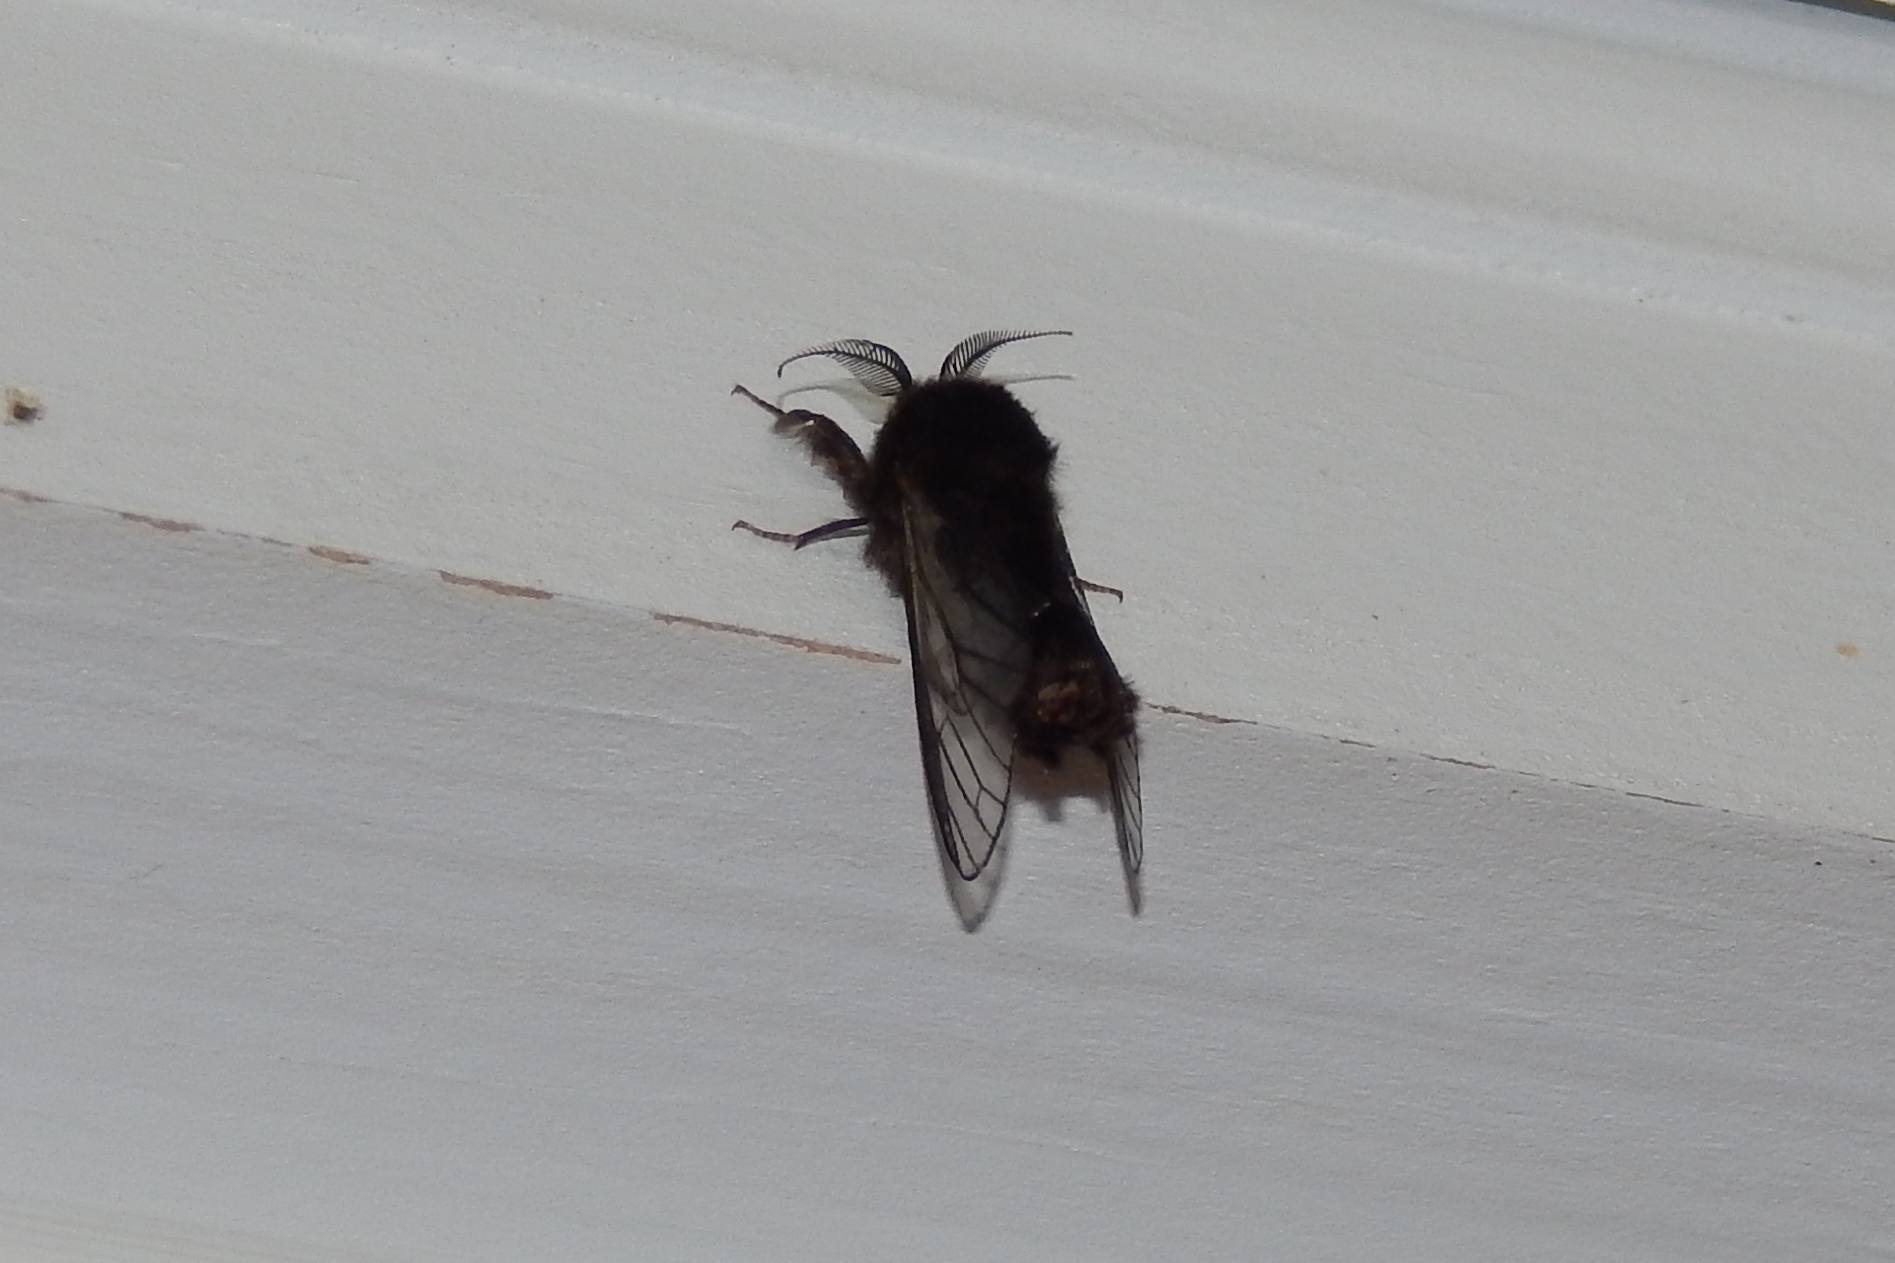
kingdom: Animalia
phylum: Arthropoda
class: Insecta
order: Lepidoptera
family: Psychidae
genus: Thyridopteryx
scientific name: Thyridopteryx ephemeraeformis
